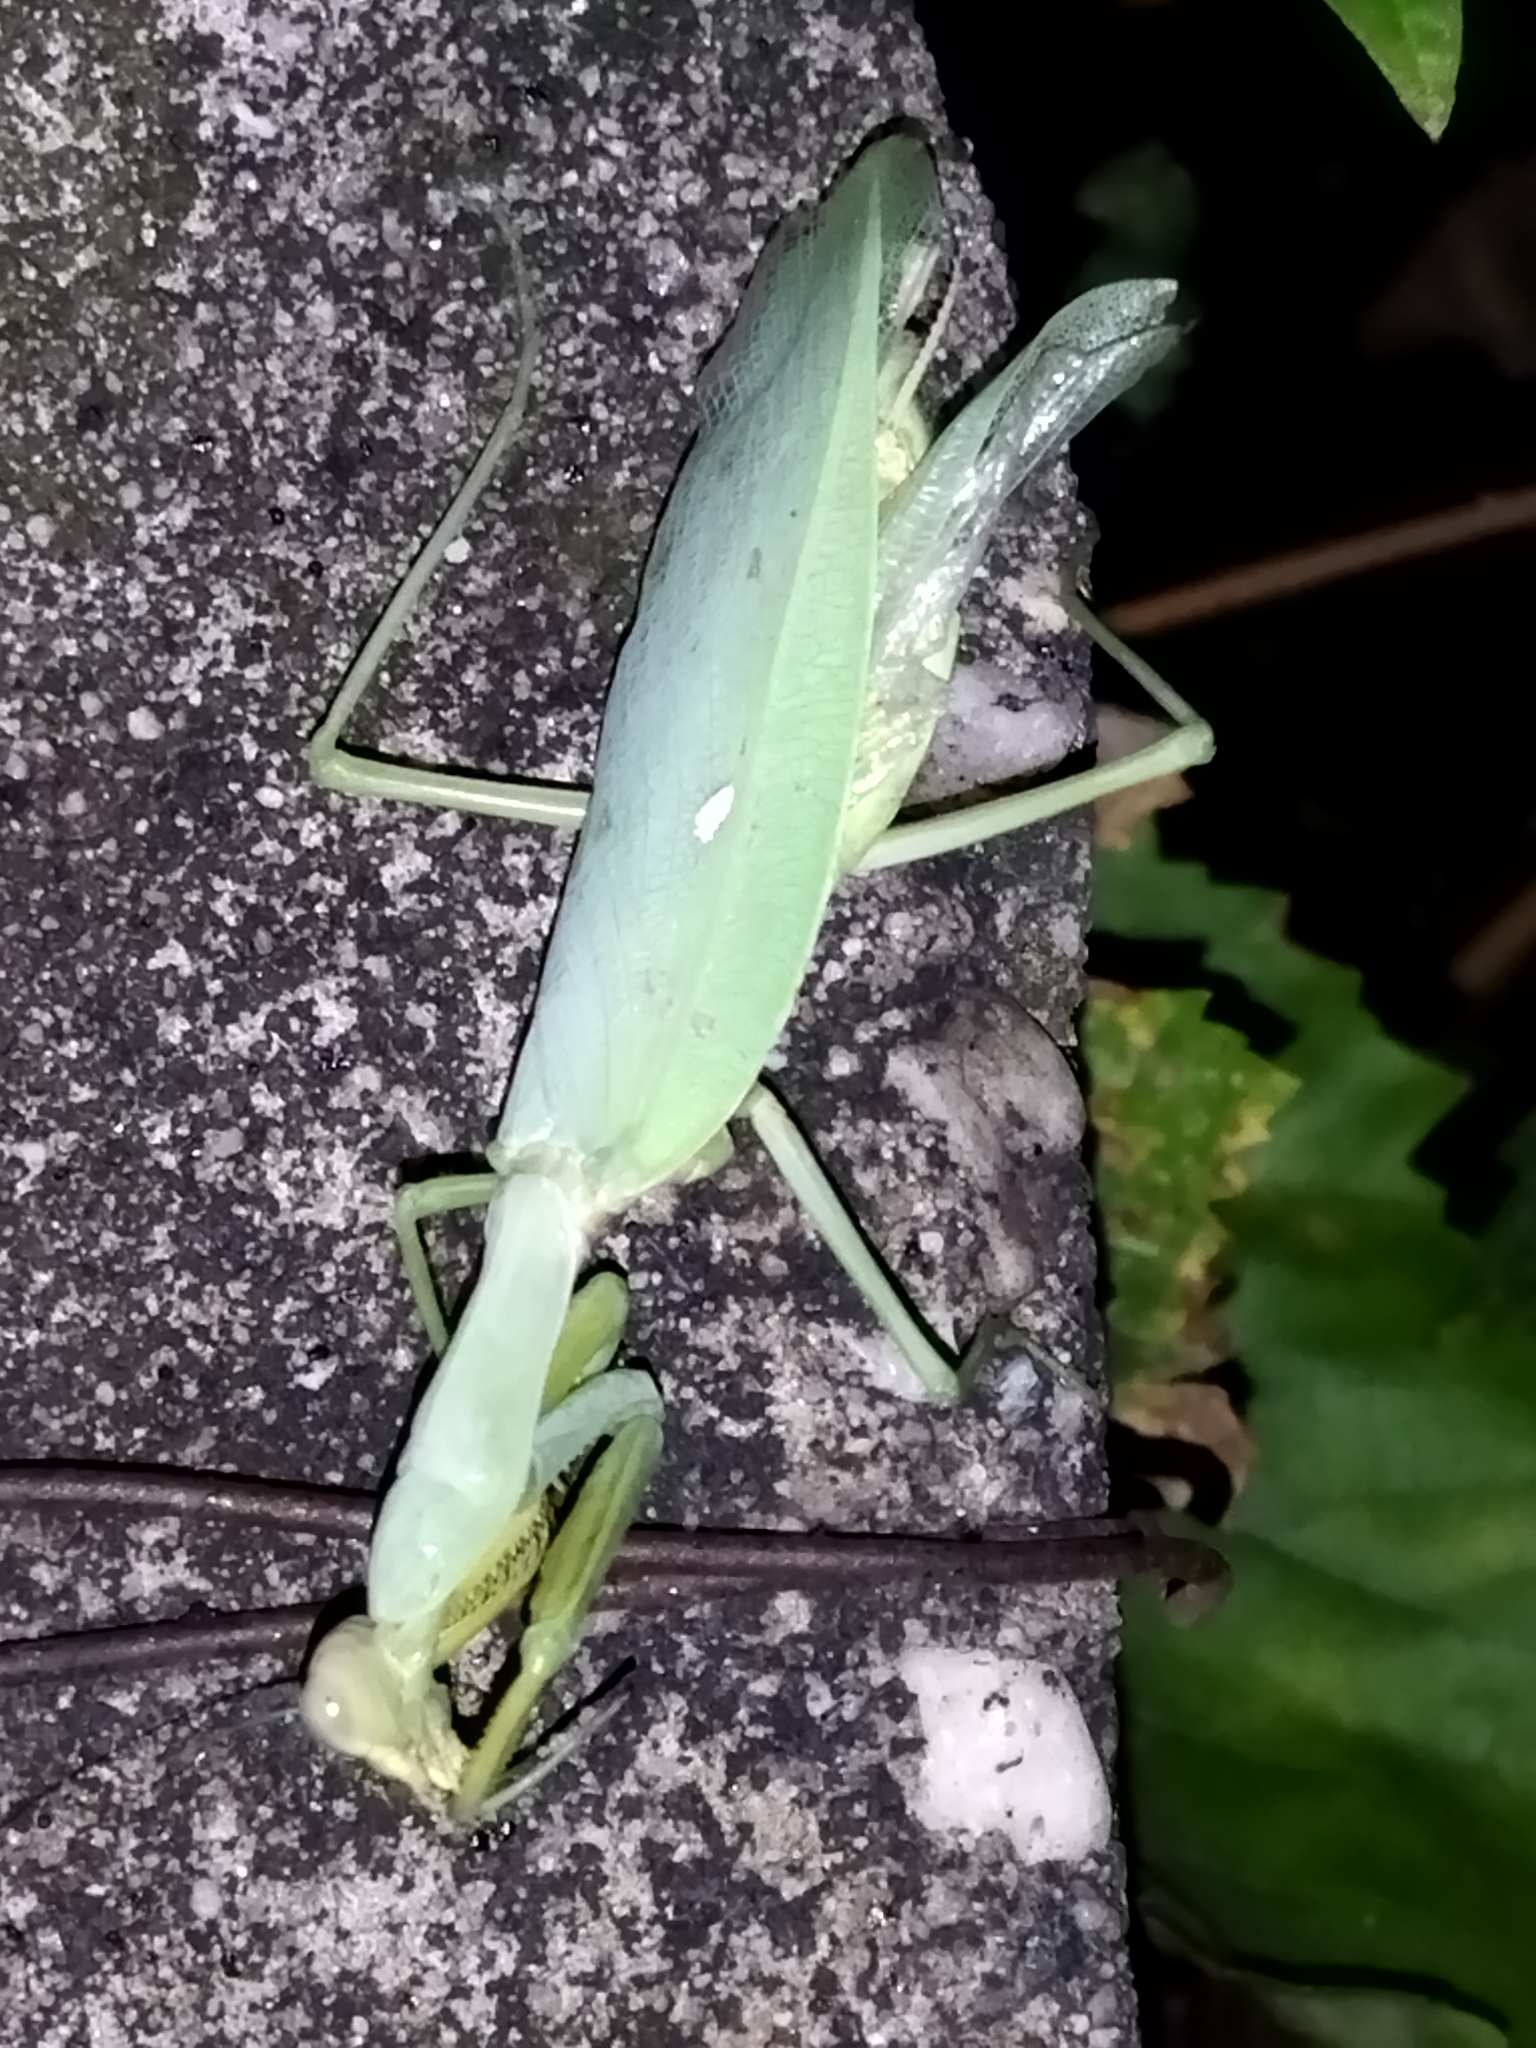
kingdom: Animalia
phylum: Arthropoda
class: Insecta
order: Mantodea
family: Mantidae
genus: Hierodula
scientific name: Hierodula transcaucasica
